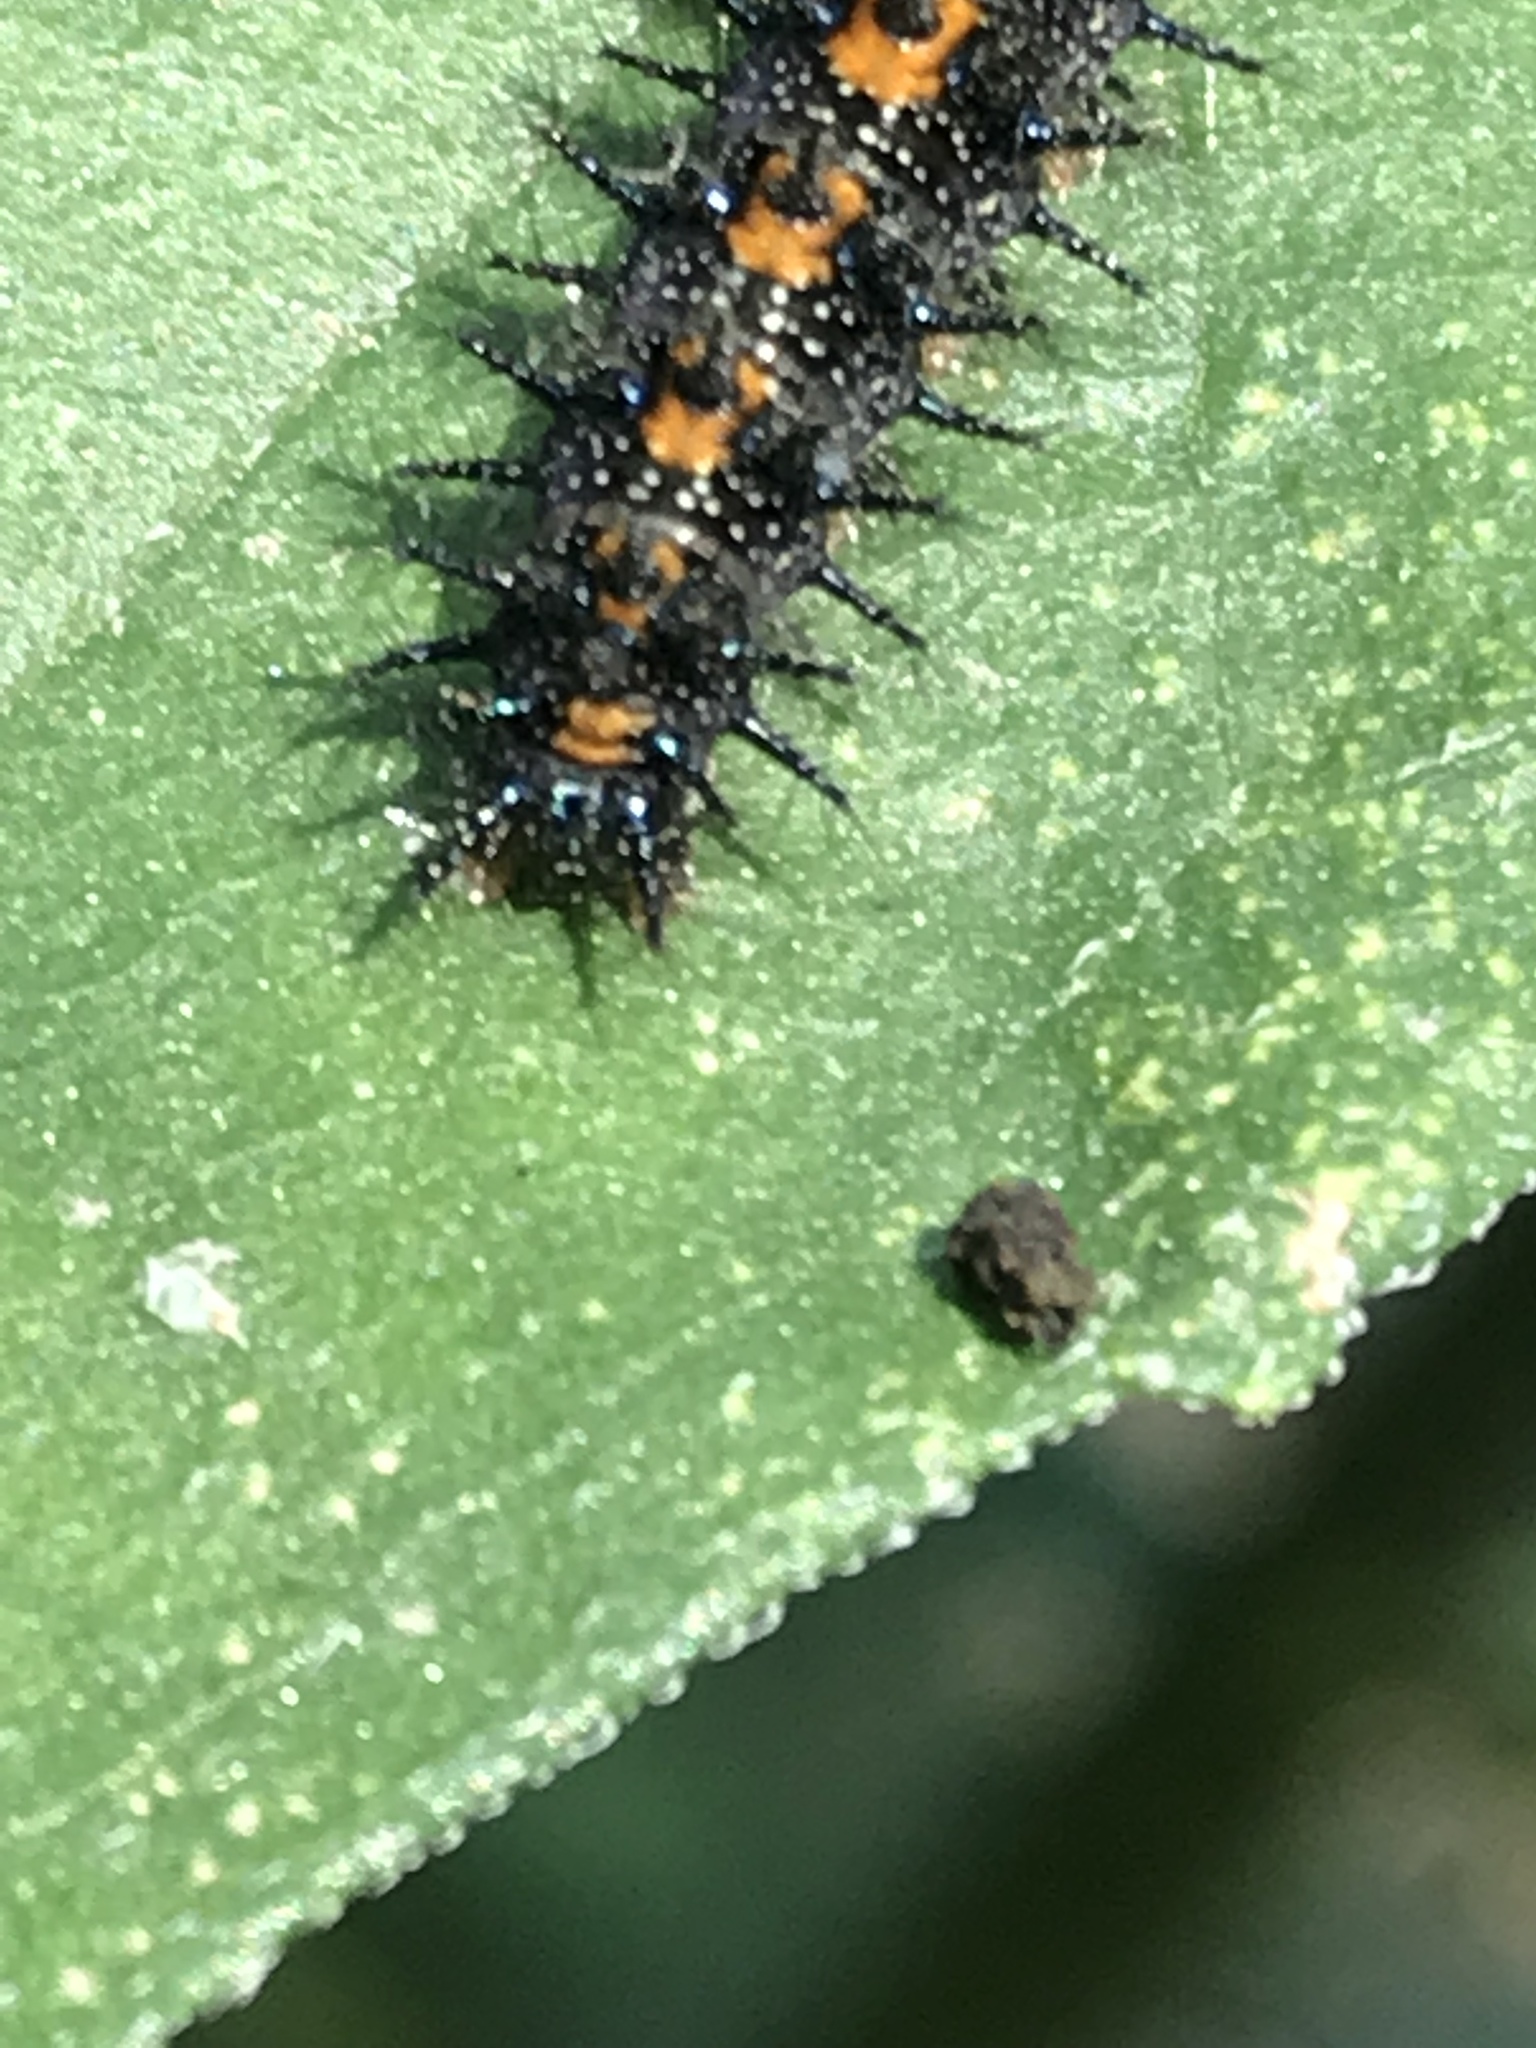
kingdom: Animalia
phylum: Arthropoda
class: Insecta
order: Lepidoptera
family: Nymphalidae
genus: Chlosyne
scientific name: Chlosyne lacinia
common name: Bordered patch
